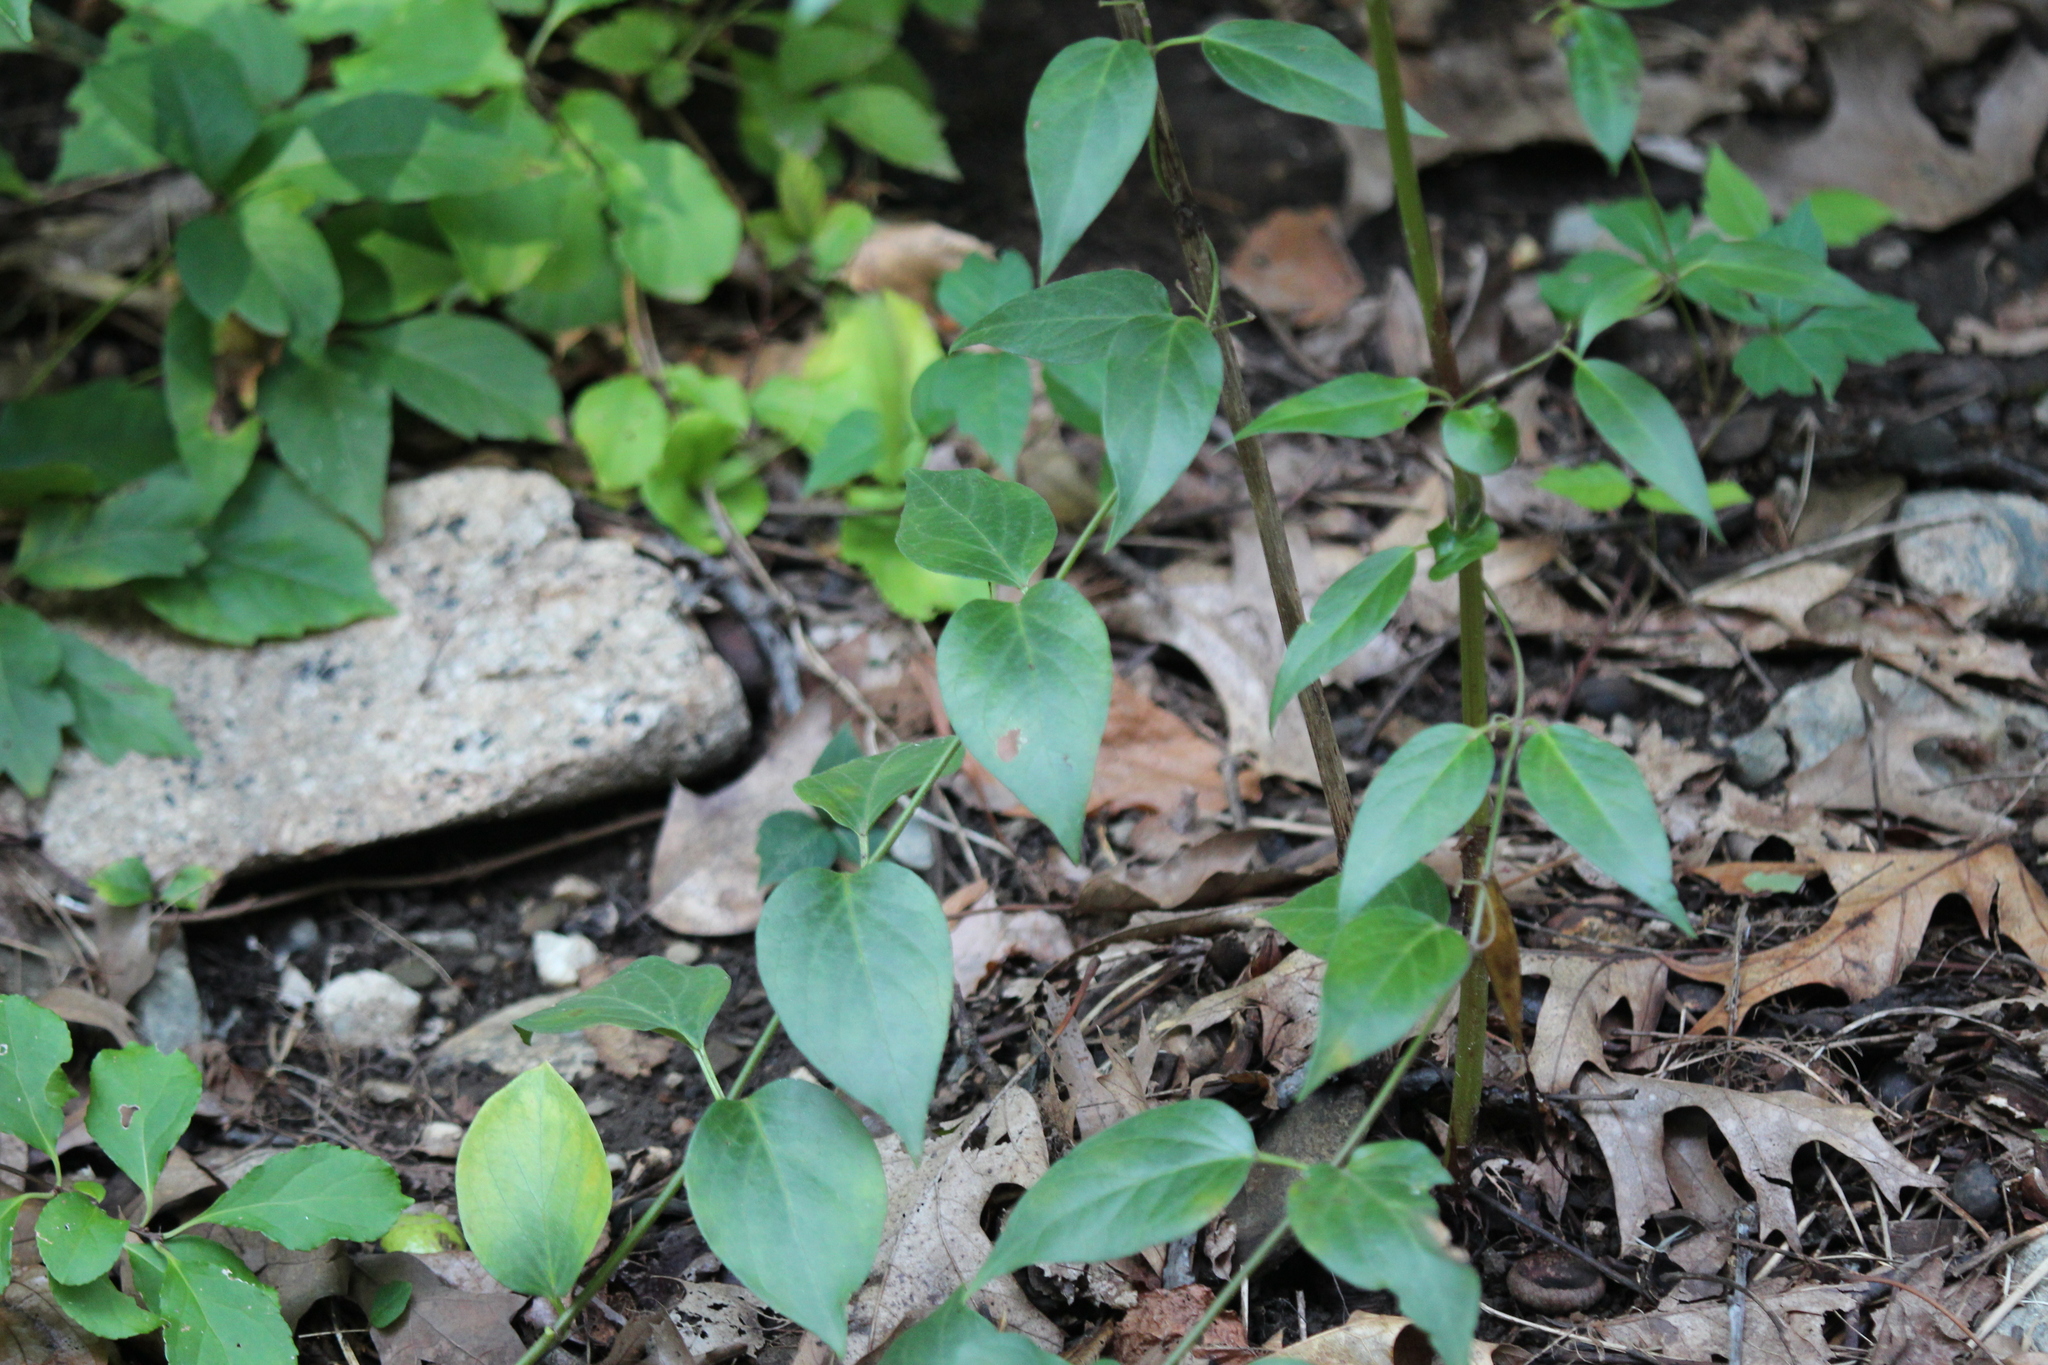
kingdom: Plantae
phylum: Tracheophyta
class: Magnoliopsida
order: Gentianales
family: Apocynaceae
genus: Vincetoxicum
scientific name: Vincetoxicum nigrum
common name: Black swallow-wort
